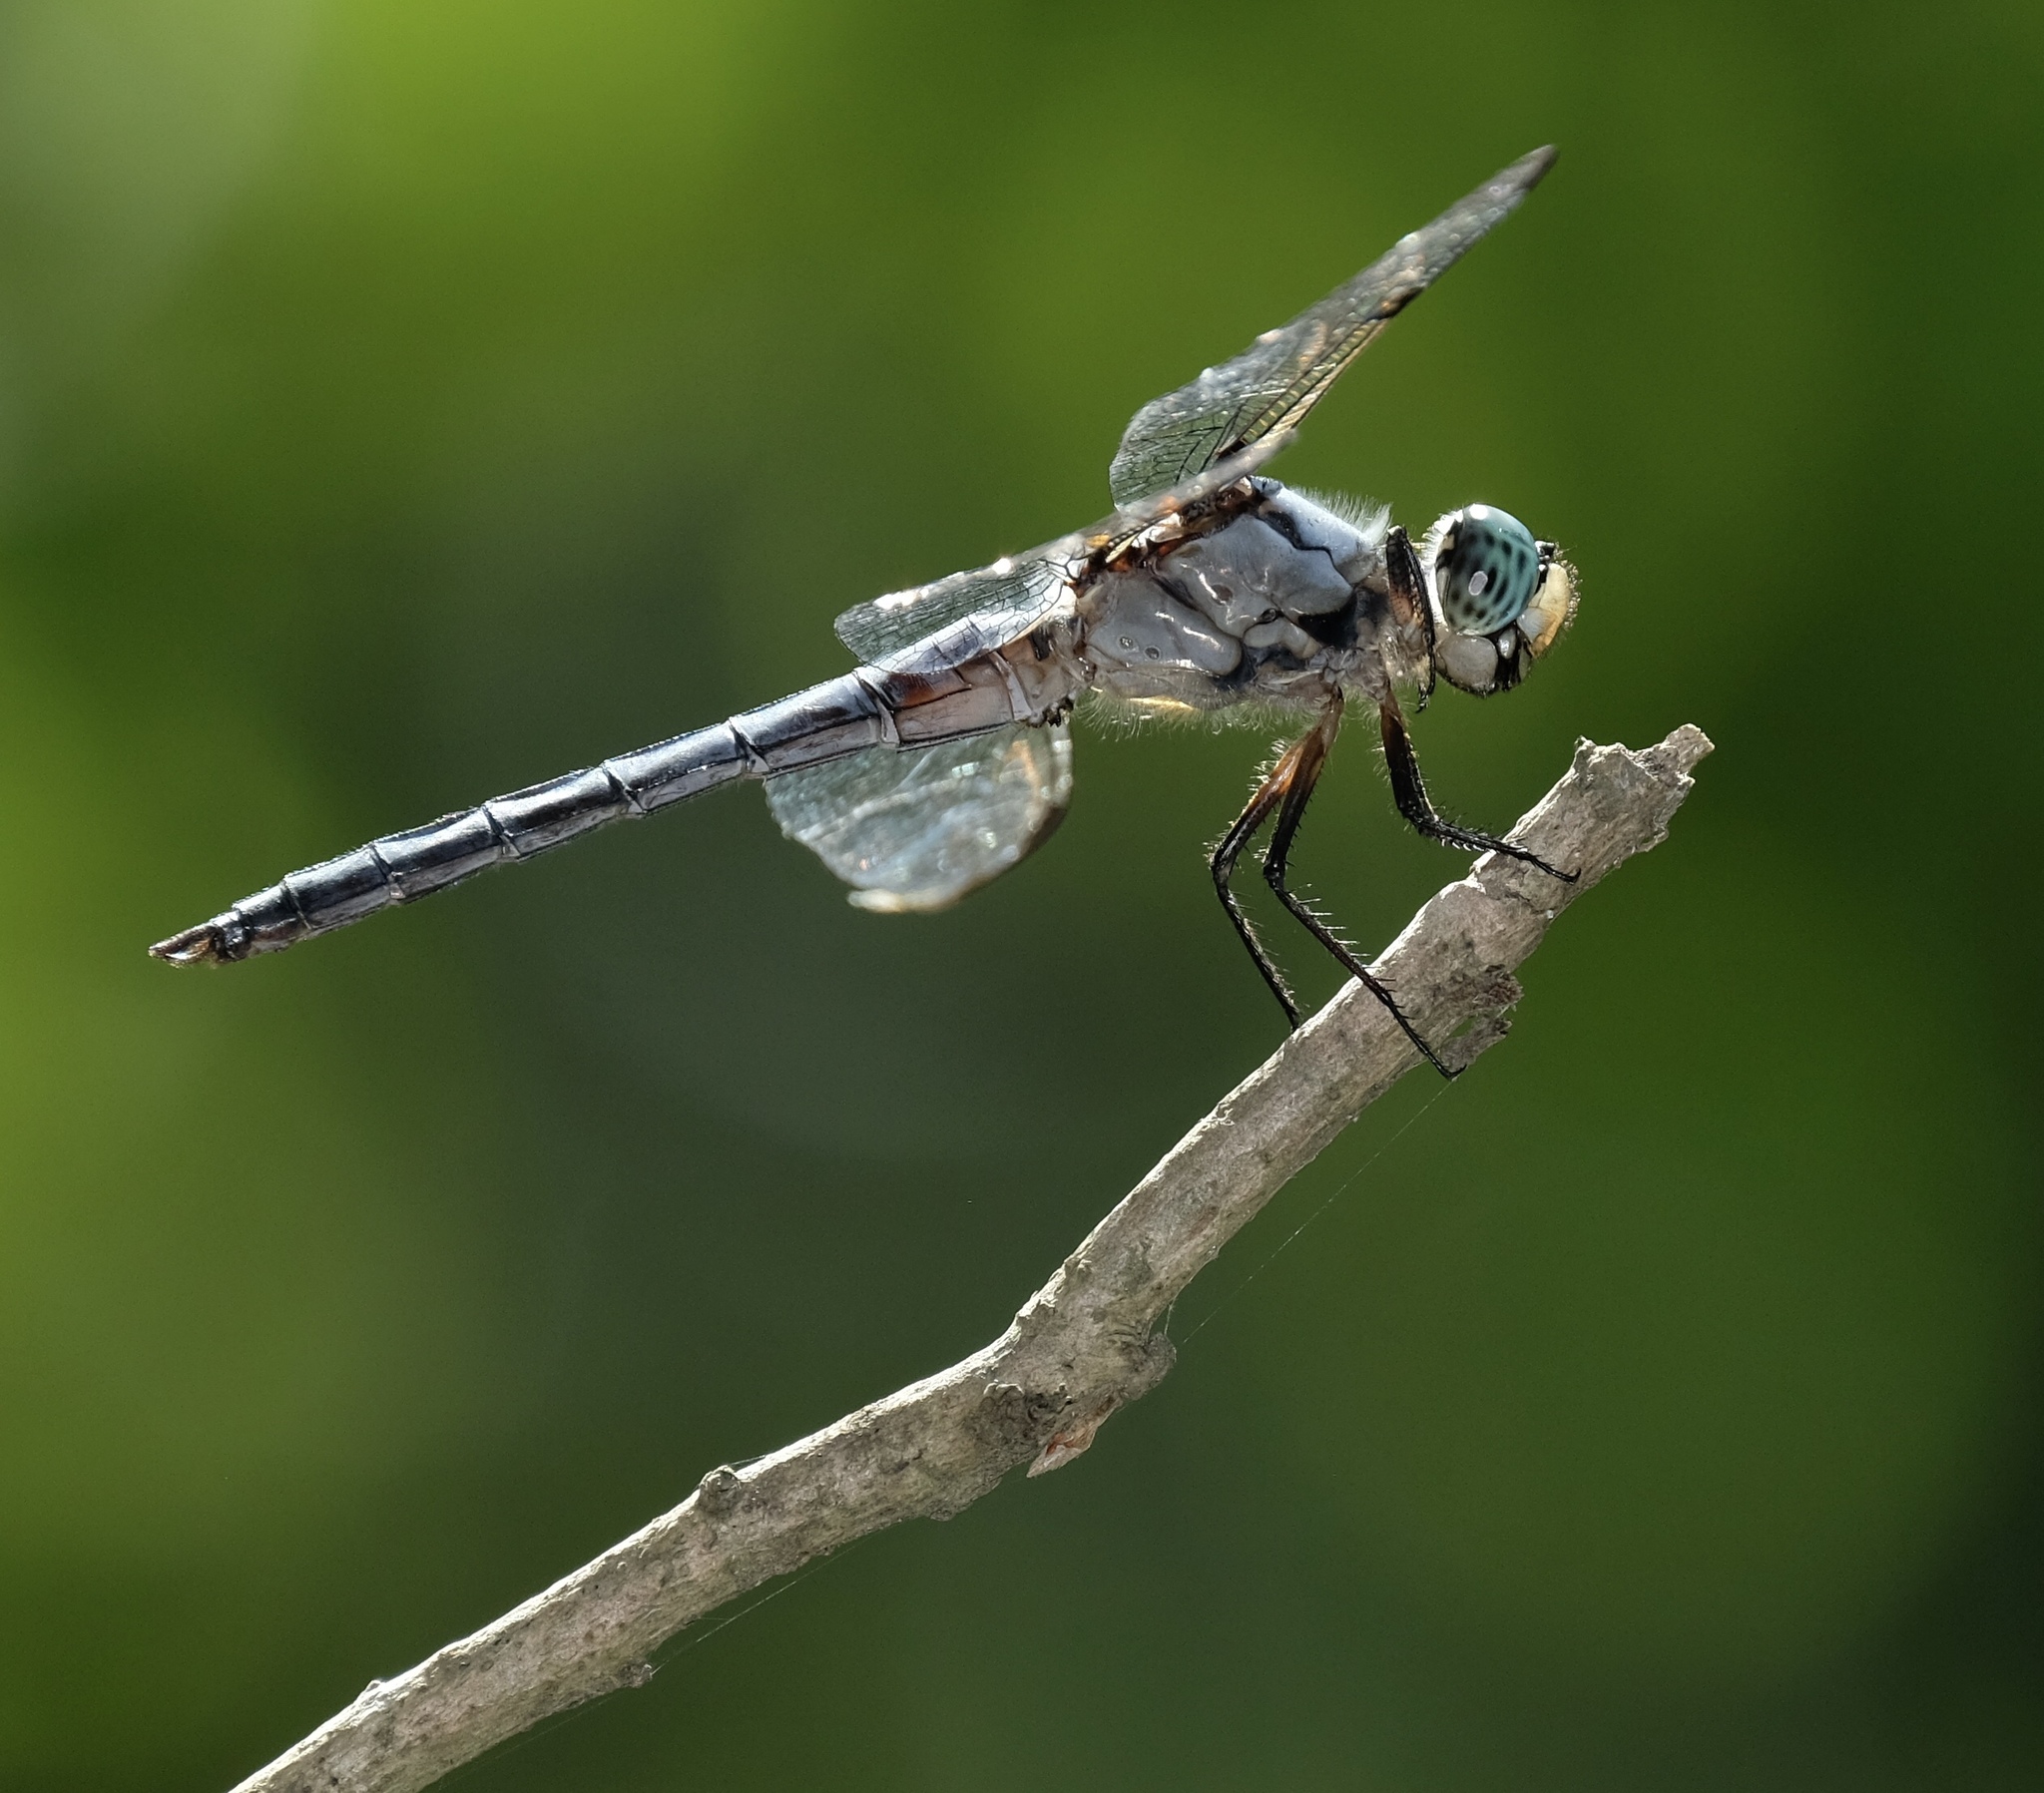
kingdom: Animalia
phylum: Arthropoda
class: Insecta
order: Odonata
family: Libellulidae
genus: Libellula
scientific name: Libellula vibrans
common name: Great blue skimmer
